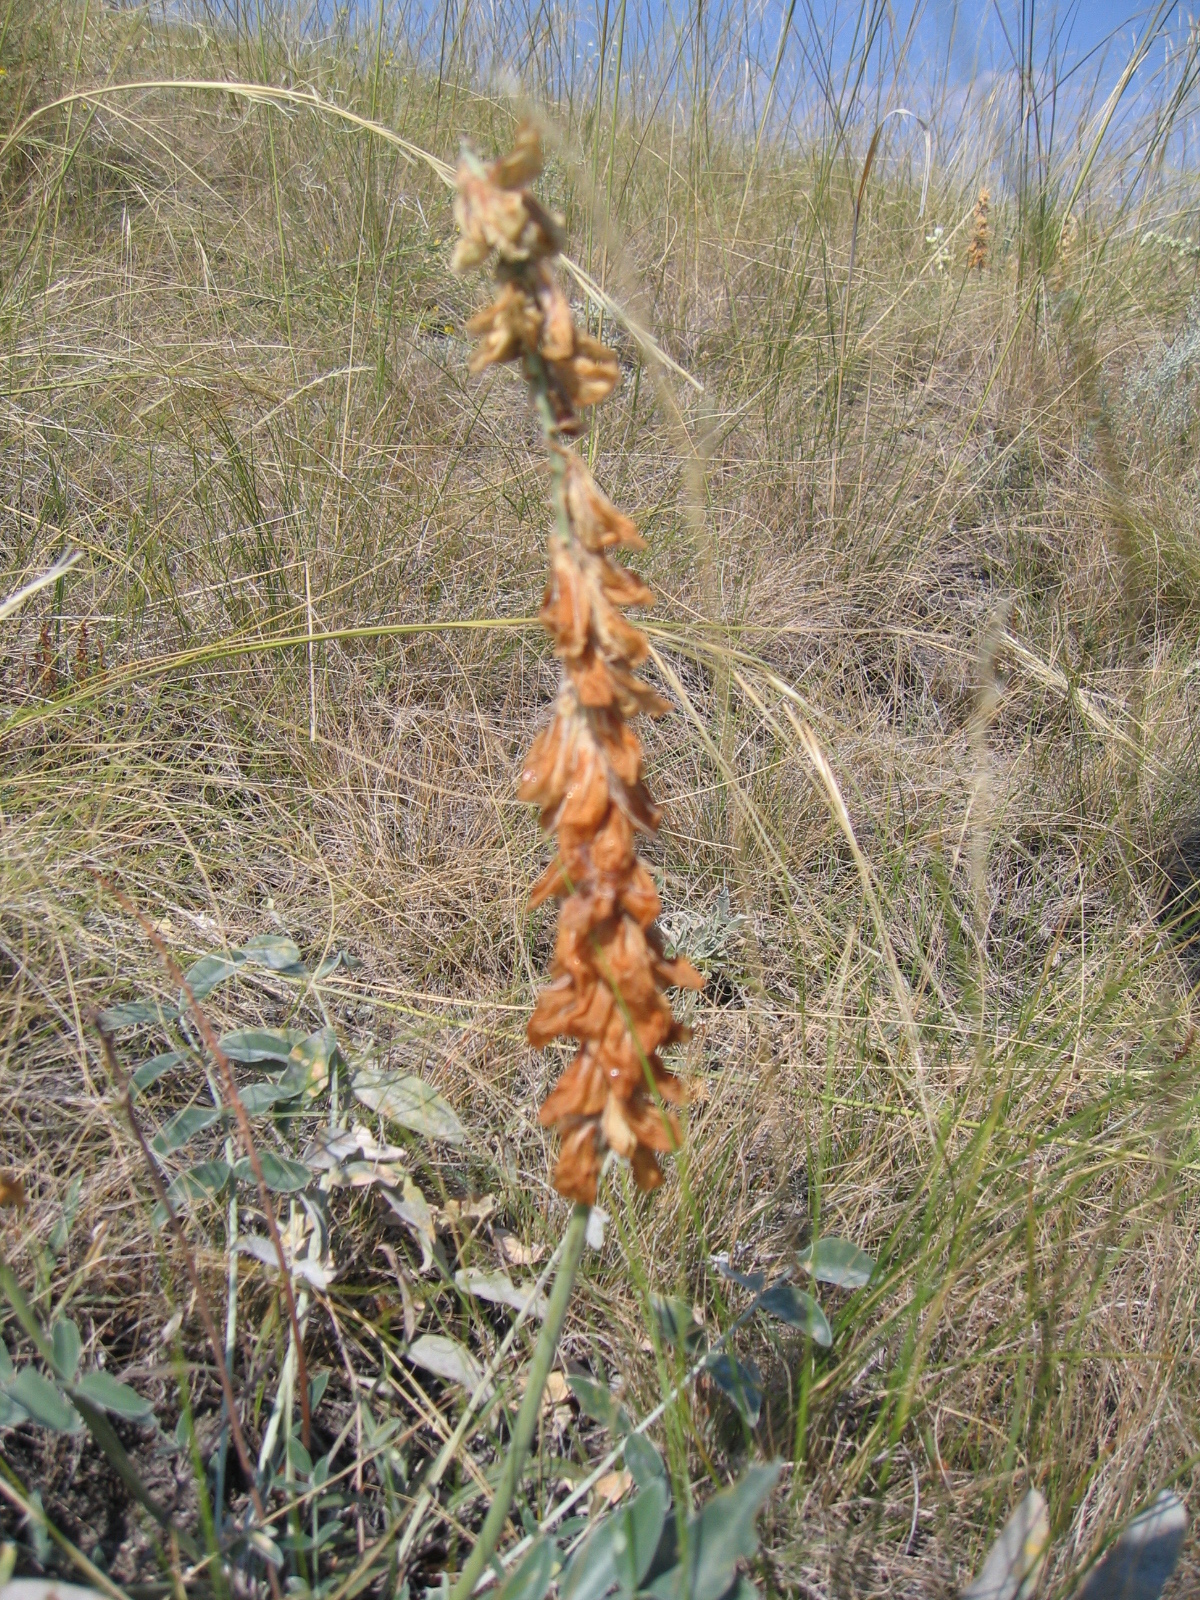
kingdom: Plantae
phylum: Tracheophyta
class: Magnoliopsida
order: Fabales
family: Fabaceae
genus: Hedysarum
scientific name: Hedysarum grandiflorum
